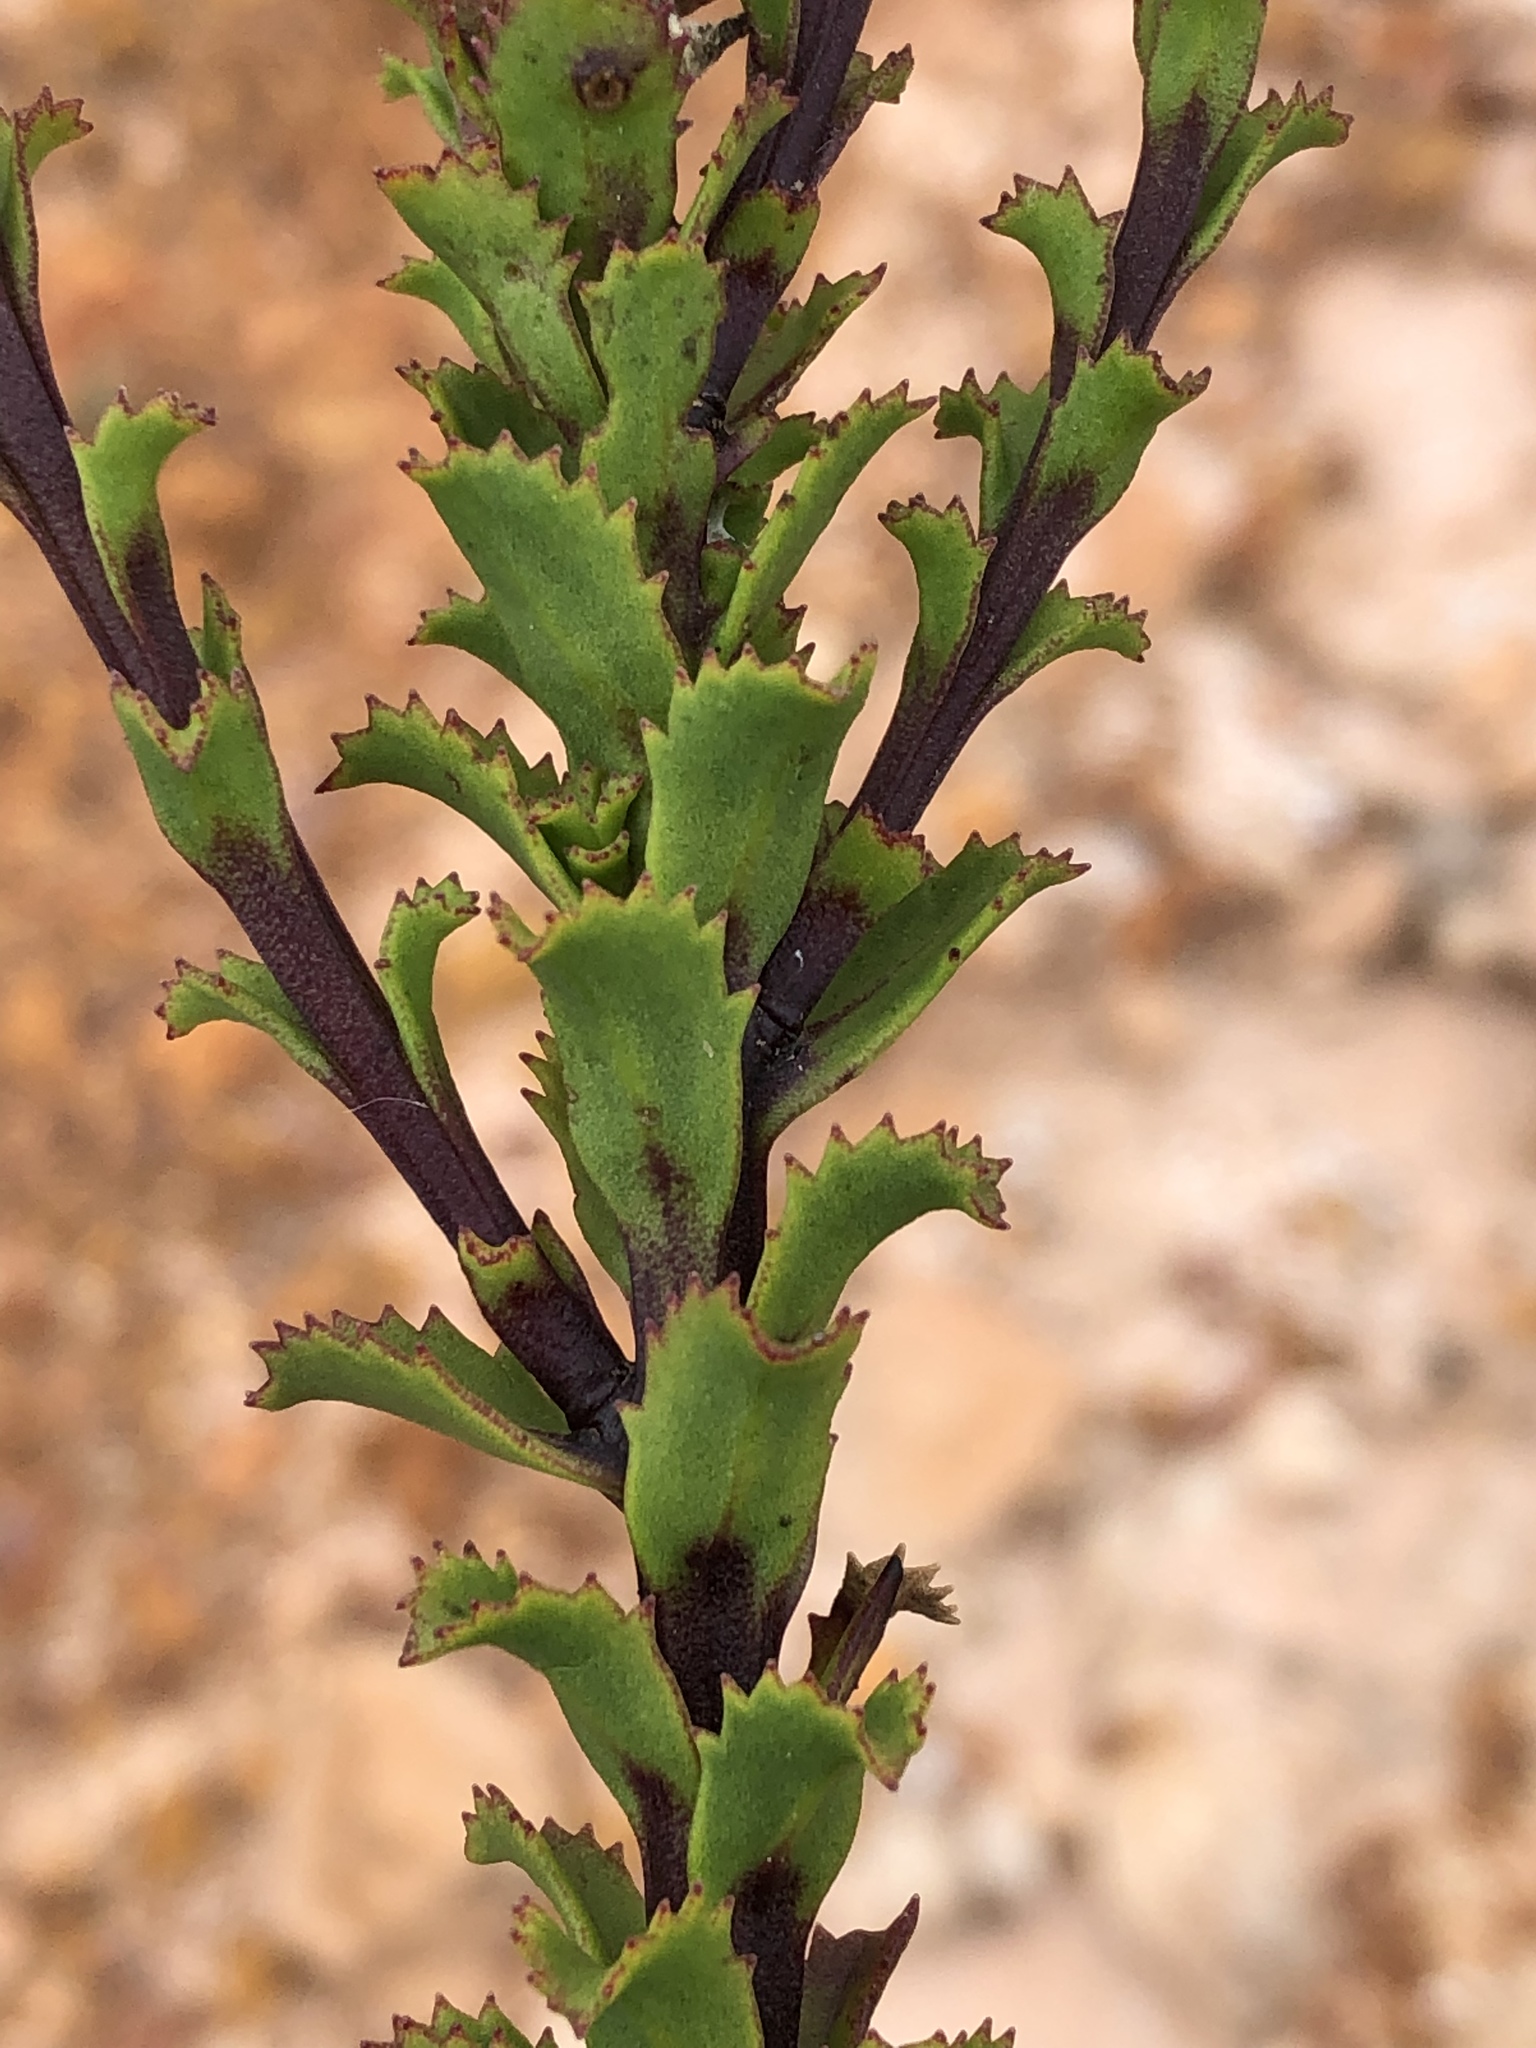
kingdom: Plantae
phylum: Tracheophyta
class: Magnoliopsida
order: Lamiales
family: Scrophulariaceae
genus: Pseudoselago
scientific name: Pseudoselago serrata
